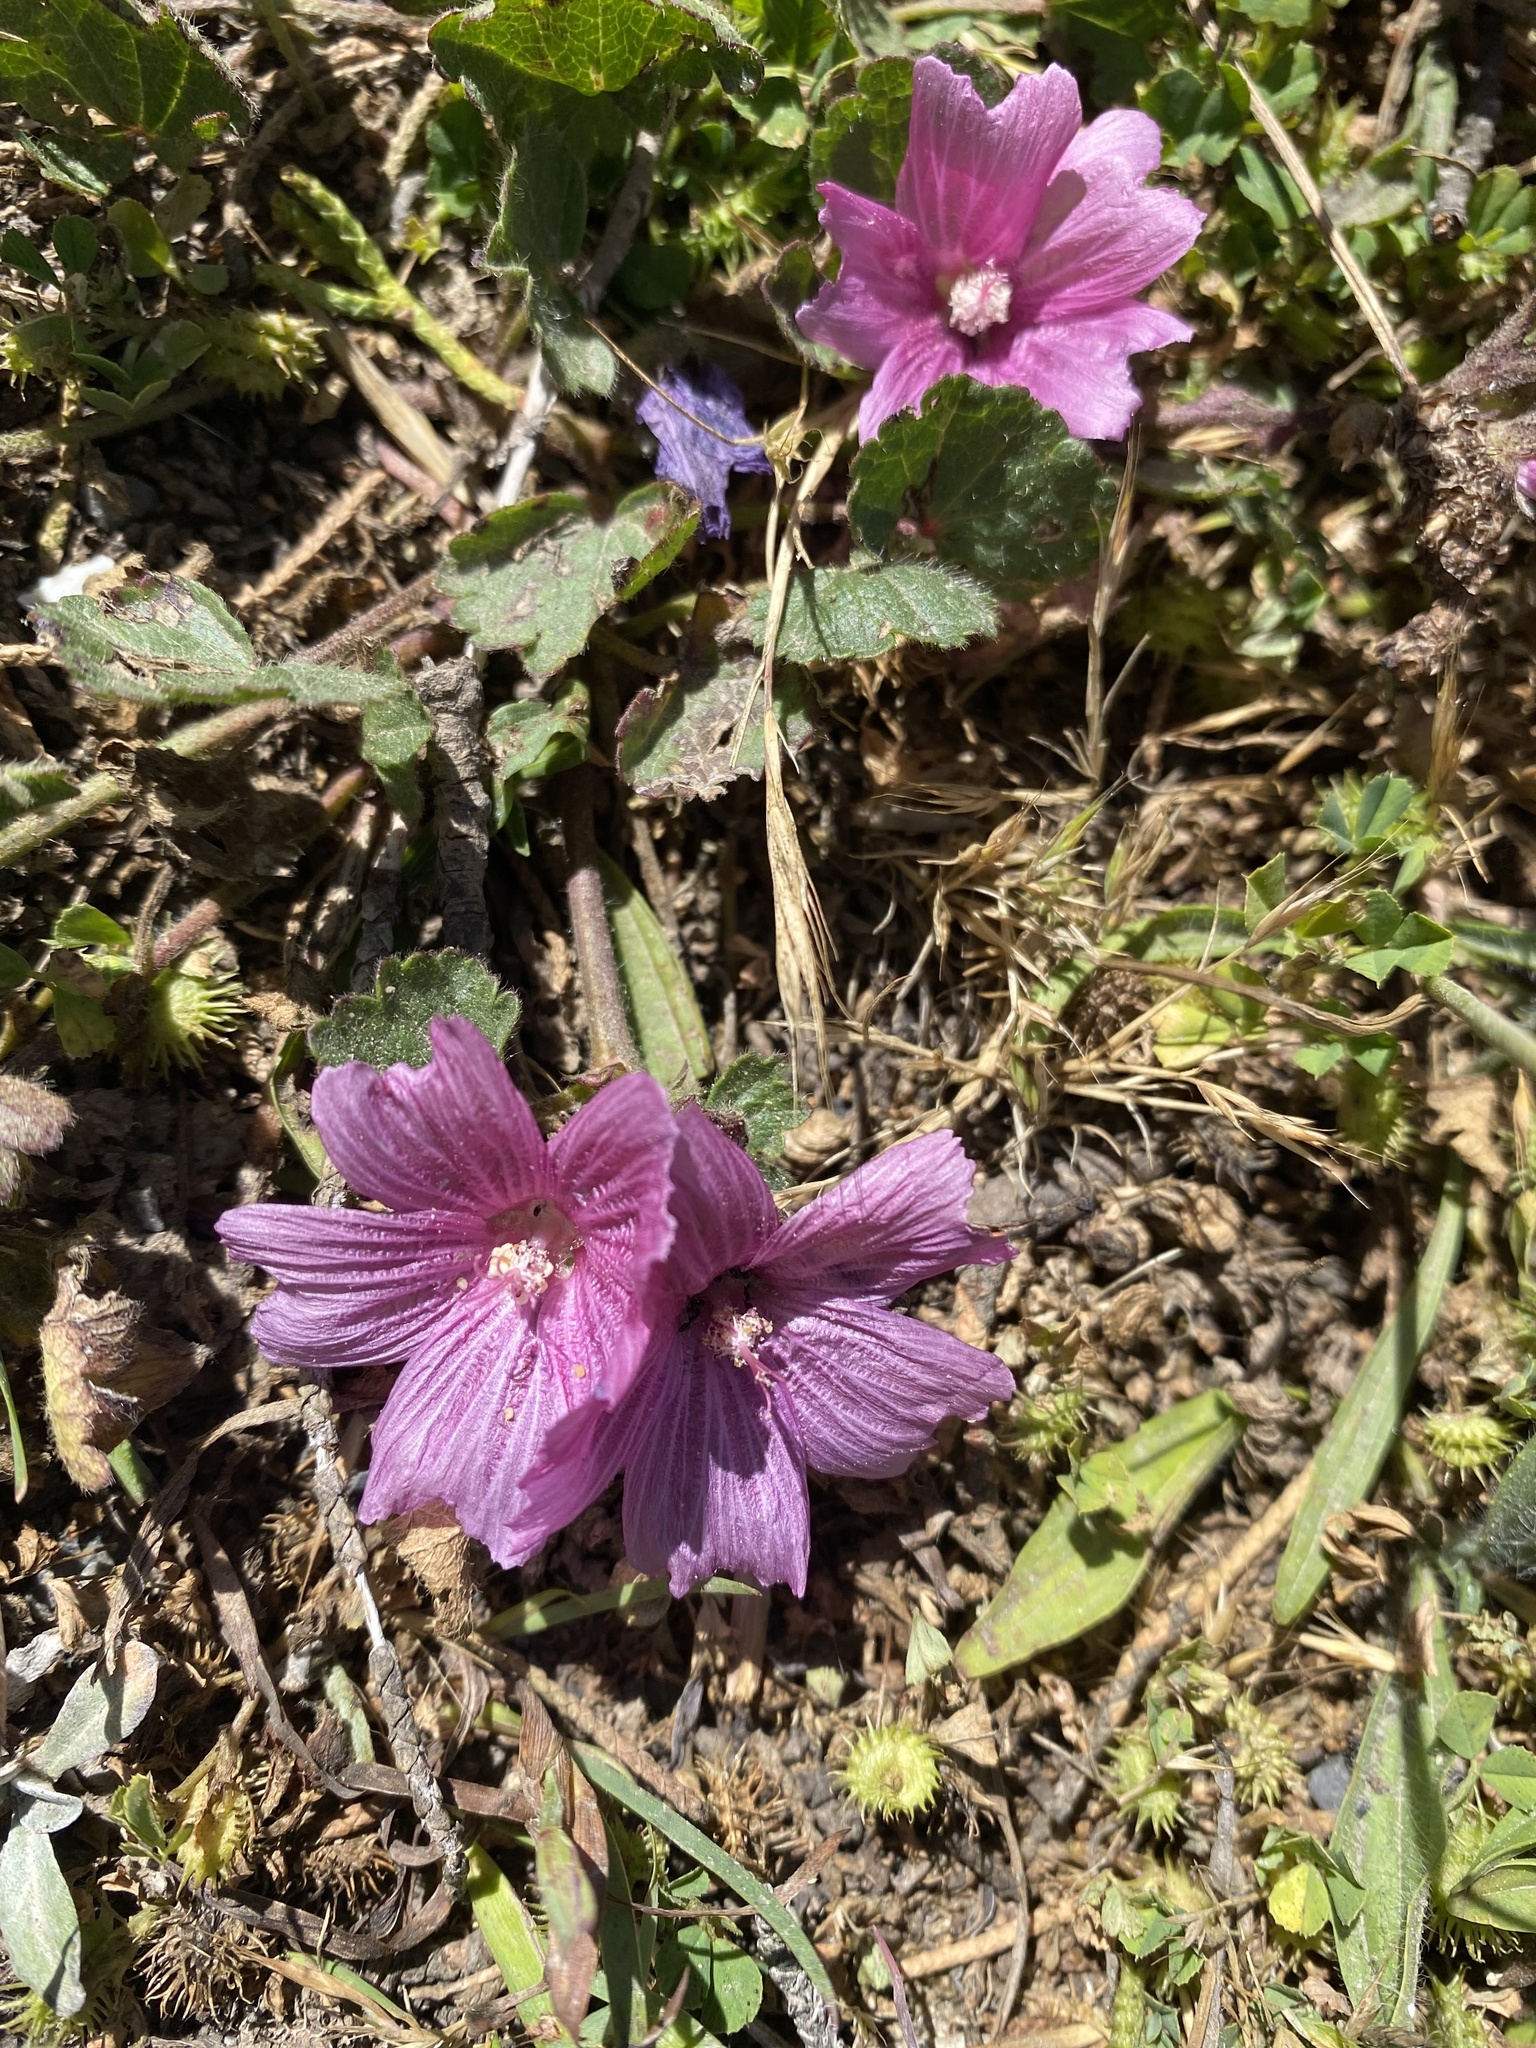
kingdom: Plantae
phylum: Tracheophyta
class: Magnoliopsida
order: Malvales
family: Malvaceae
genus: Sidalcea
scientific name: Sidalcea malviflora
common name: Greek mallow
